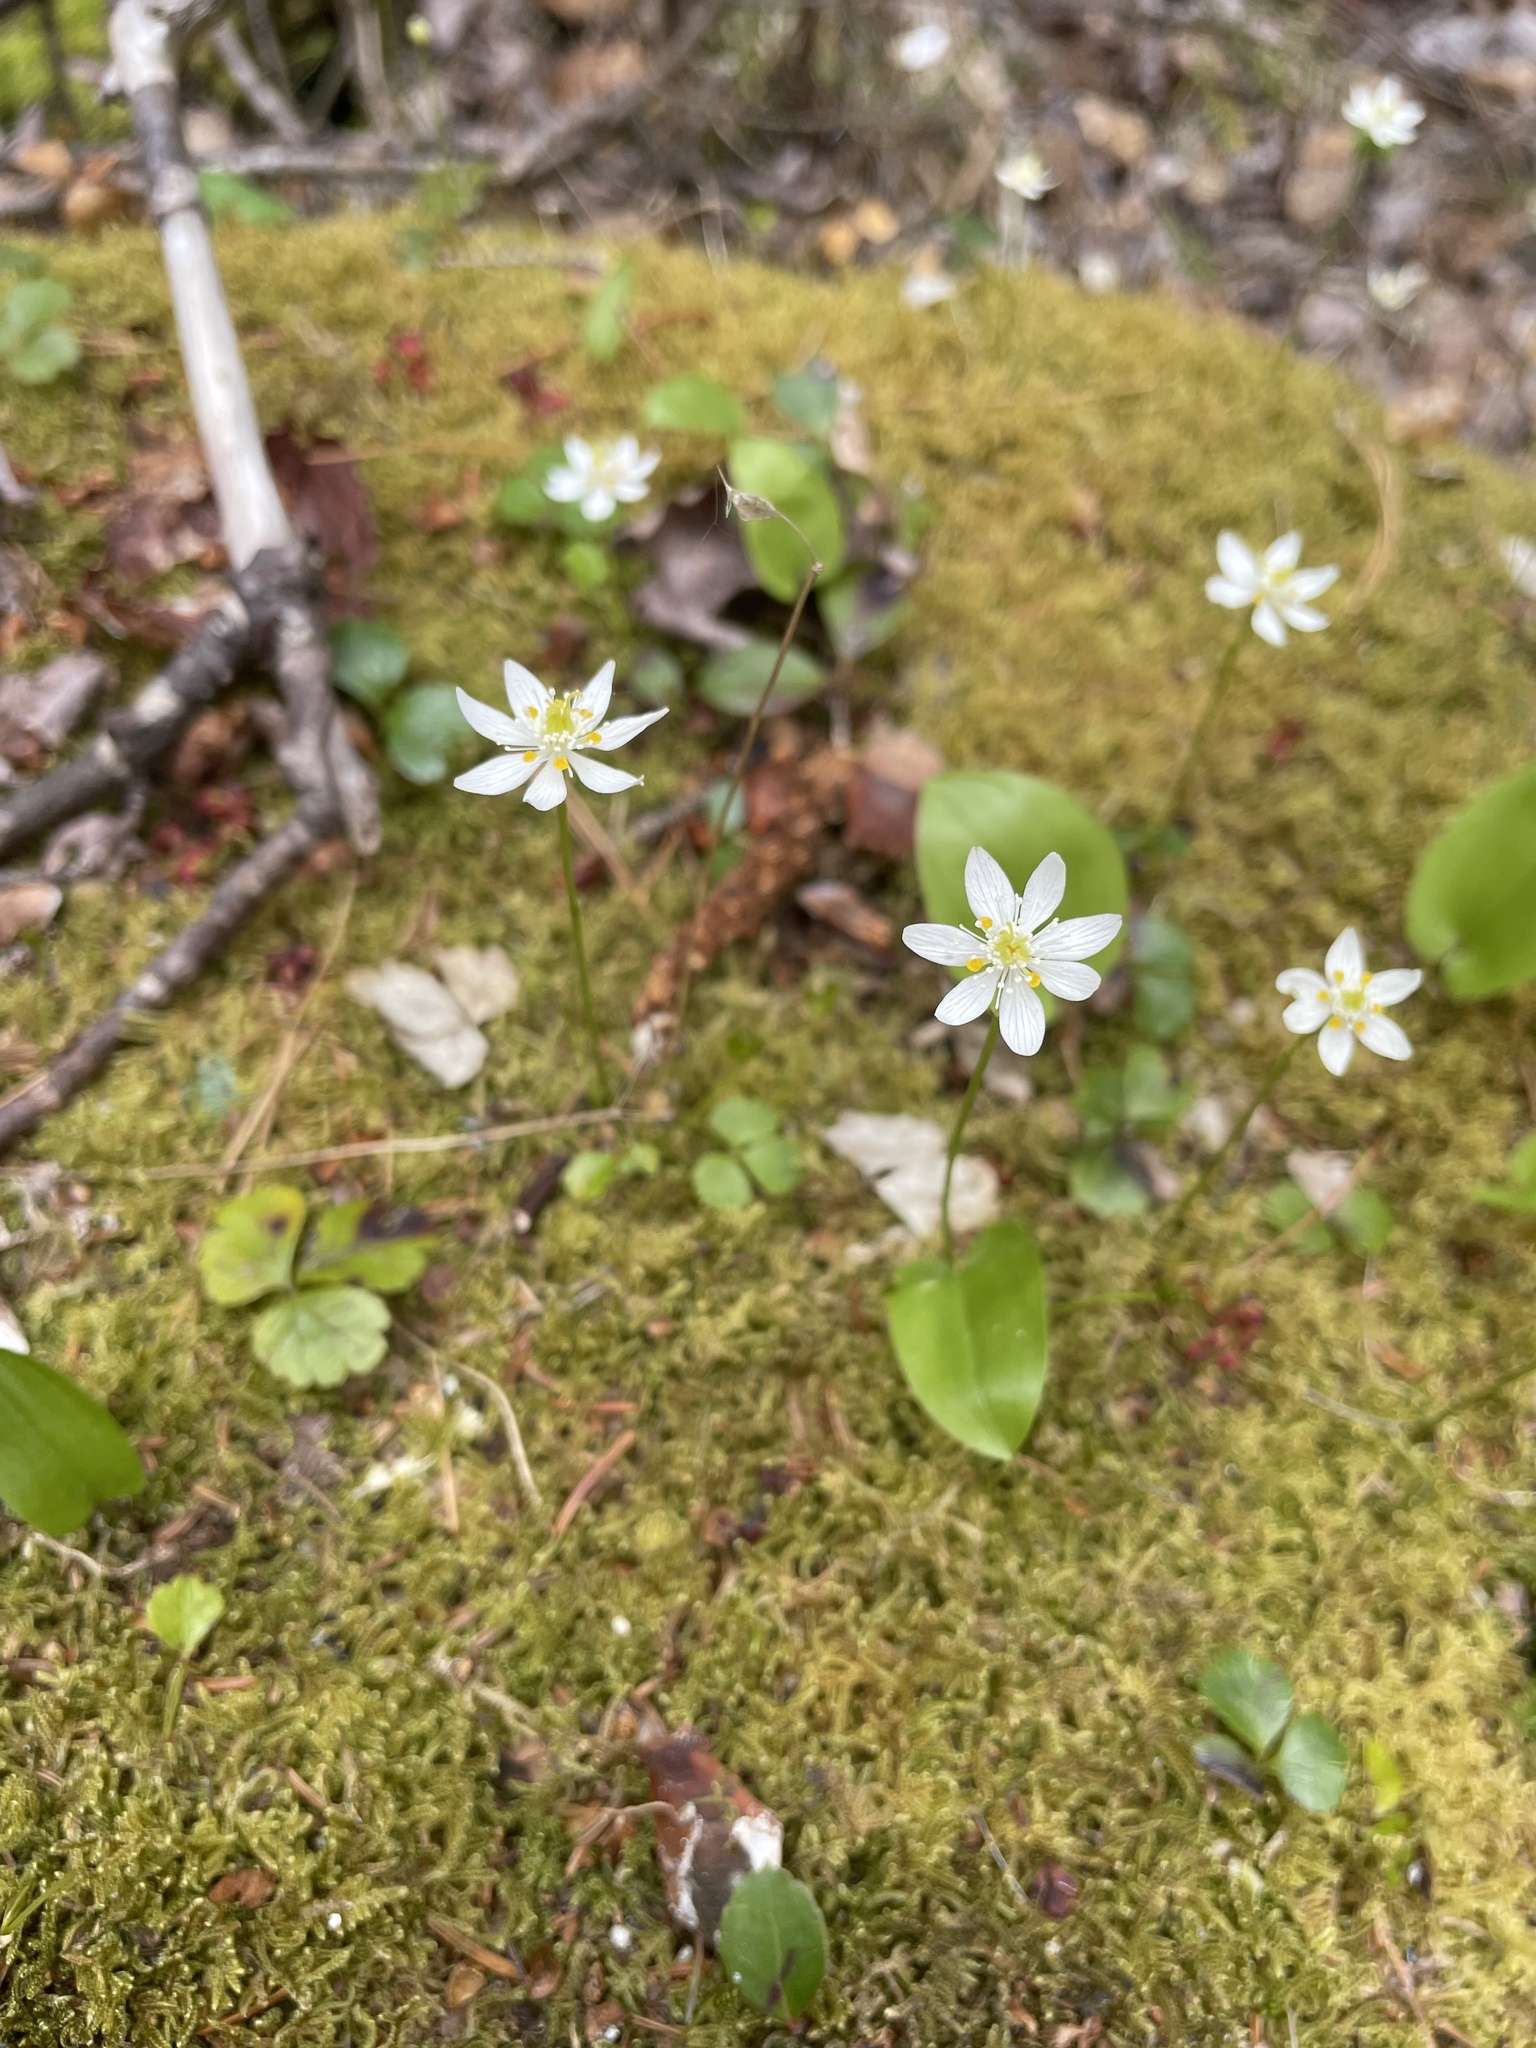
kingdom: Plantae
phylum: Tracheophyta
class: Magnoliopsida
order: Ranunculales
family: Ranunculaceae
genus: Coptis
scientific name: Coptis trifolia
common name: Canker-root
